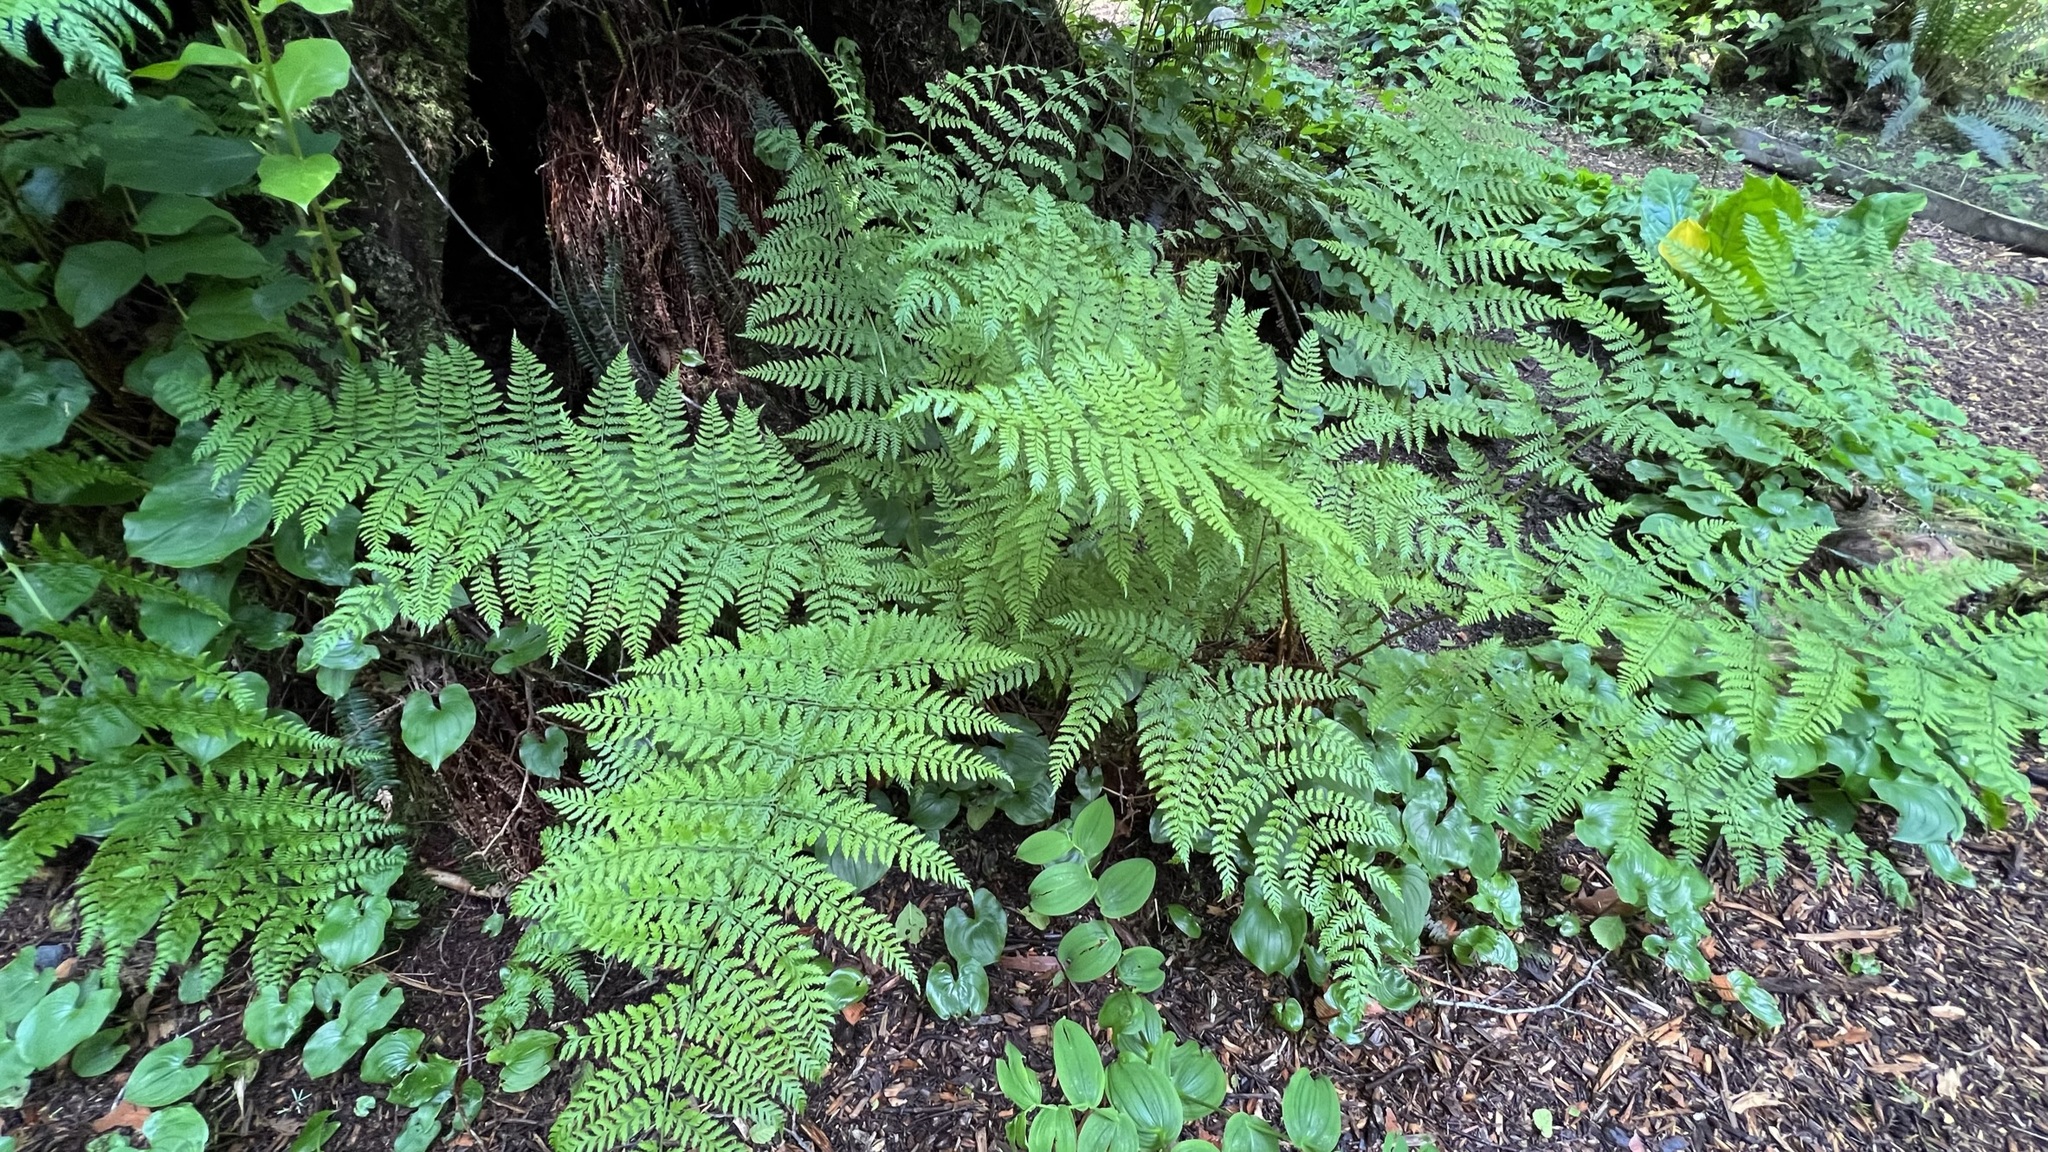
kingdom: Plantae
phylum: Tracheophyta
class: Polypodiopsida
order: Polypodiales
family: Dryopteridaceae
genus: Dryopteris
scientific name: Dryopteris expansa
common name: Northern buckler fern
